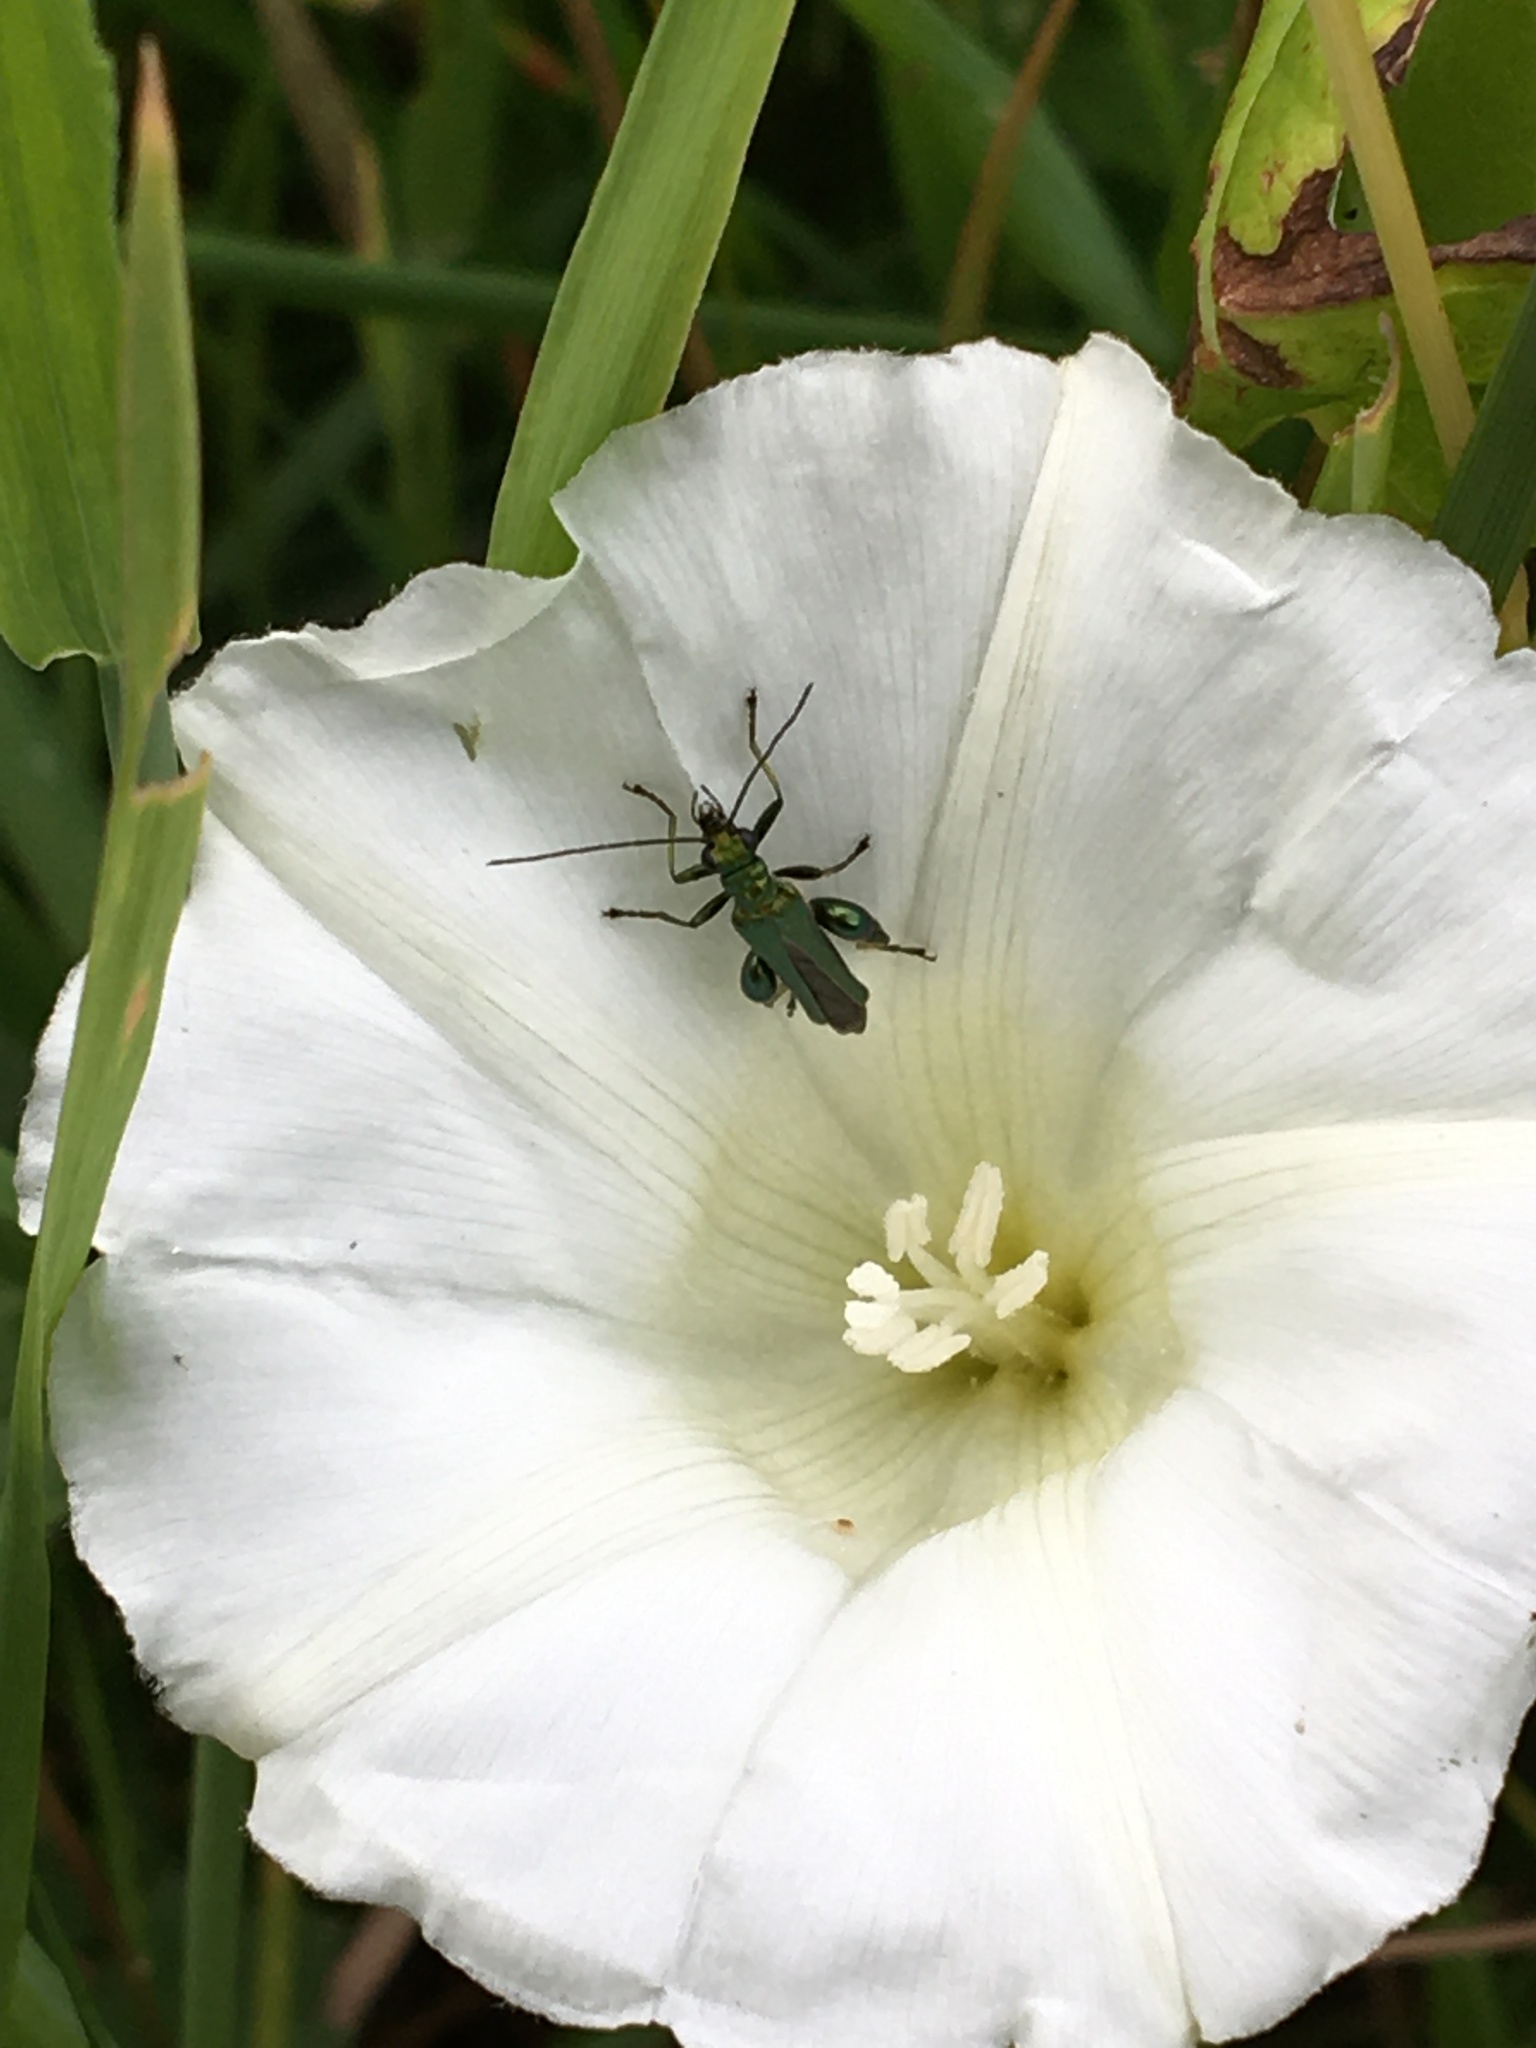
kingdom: Animalia
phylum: Arthropoda
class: Insecta
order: Coleoptera
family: Oedemeridae
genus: Oedemera
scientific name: Oedemera nobilis
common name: Swollen-thighed beetle
